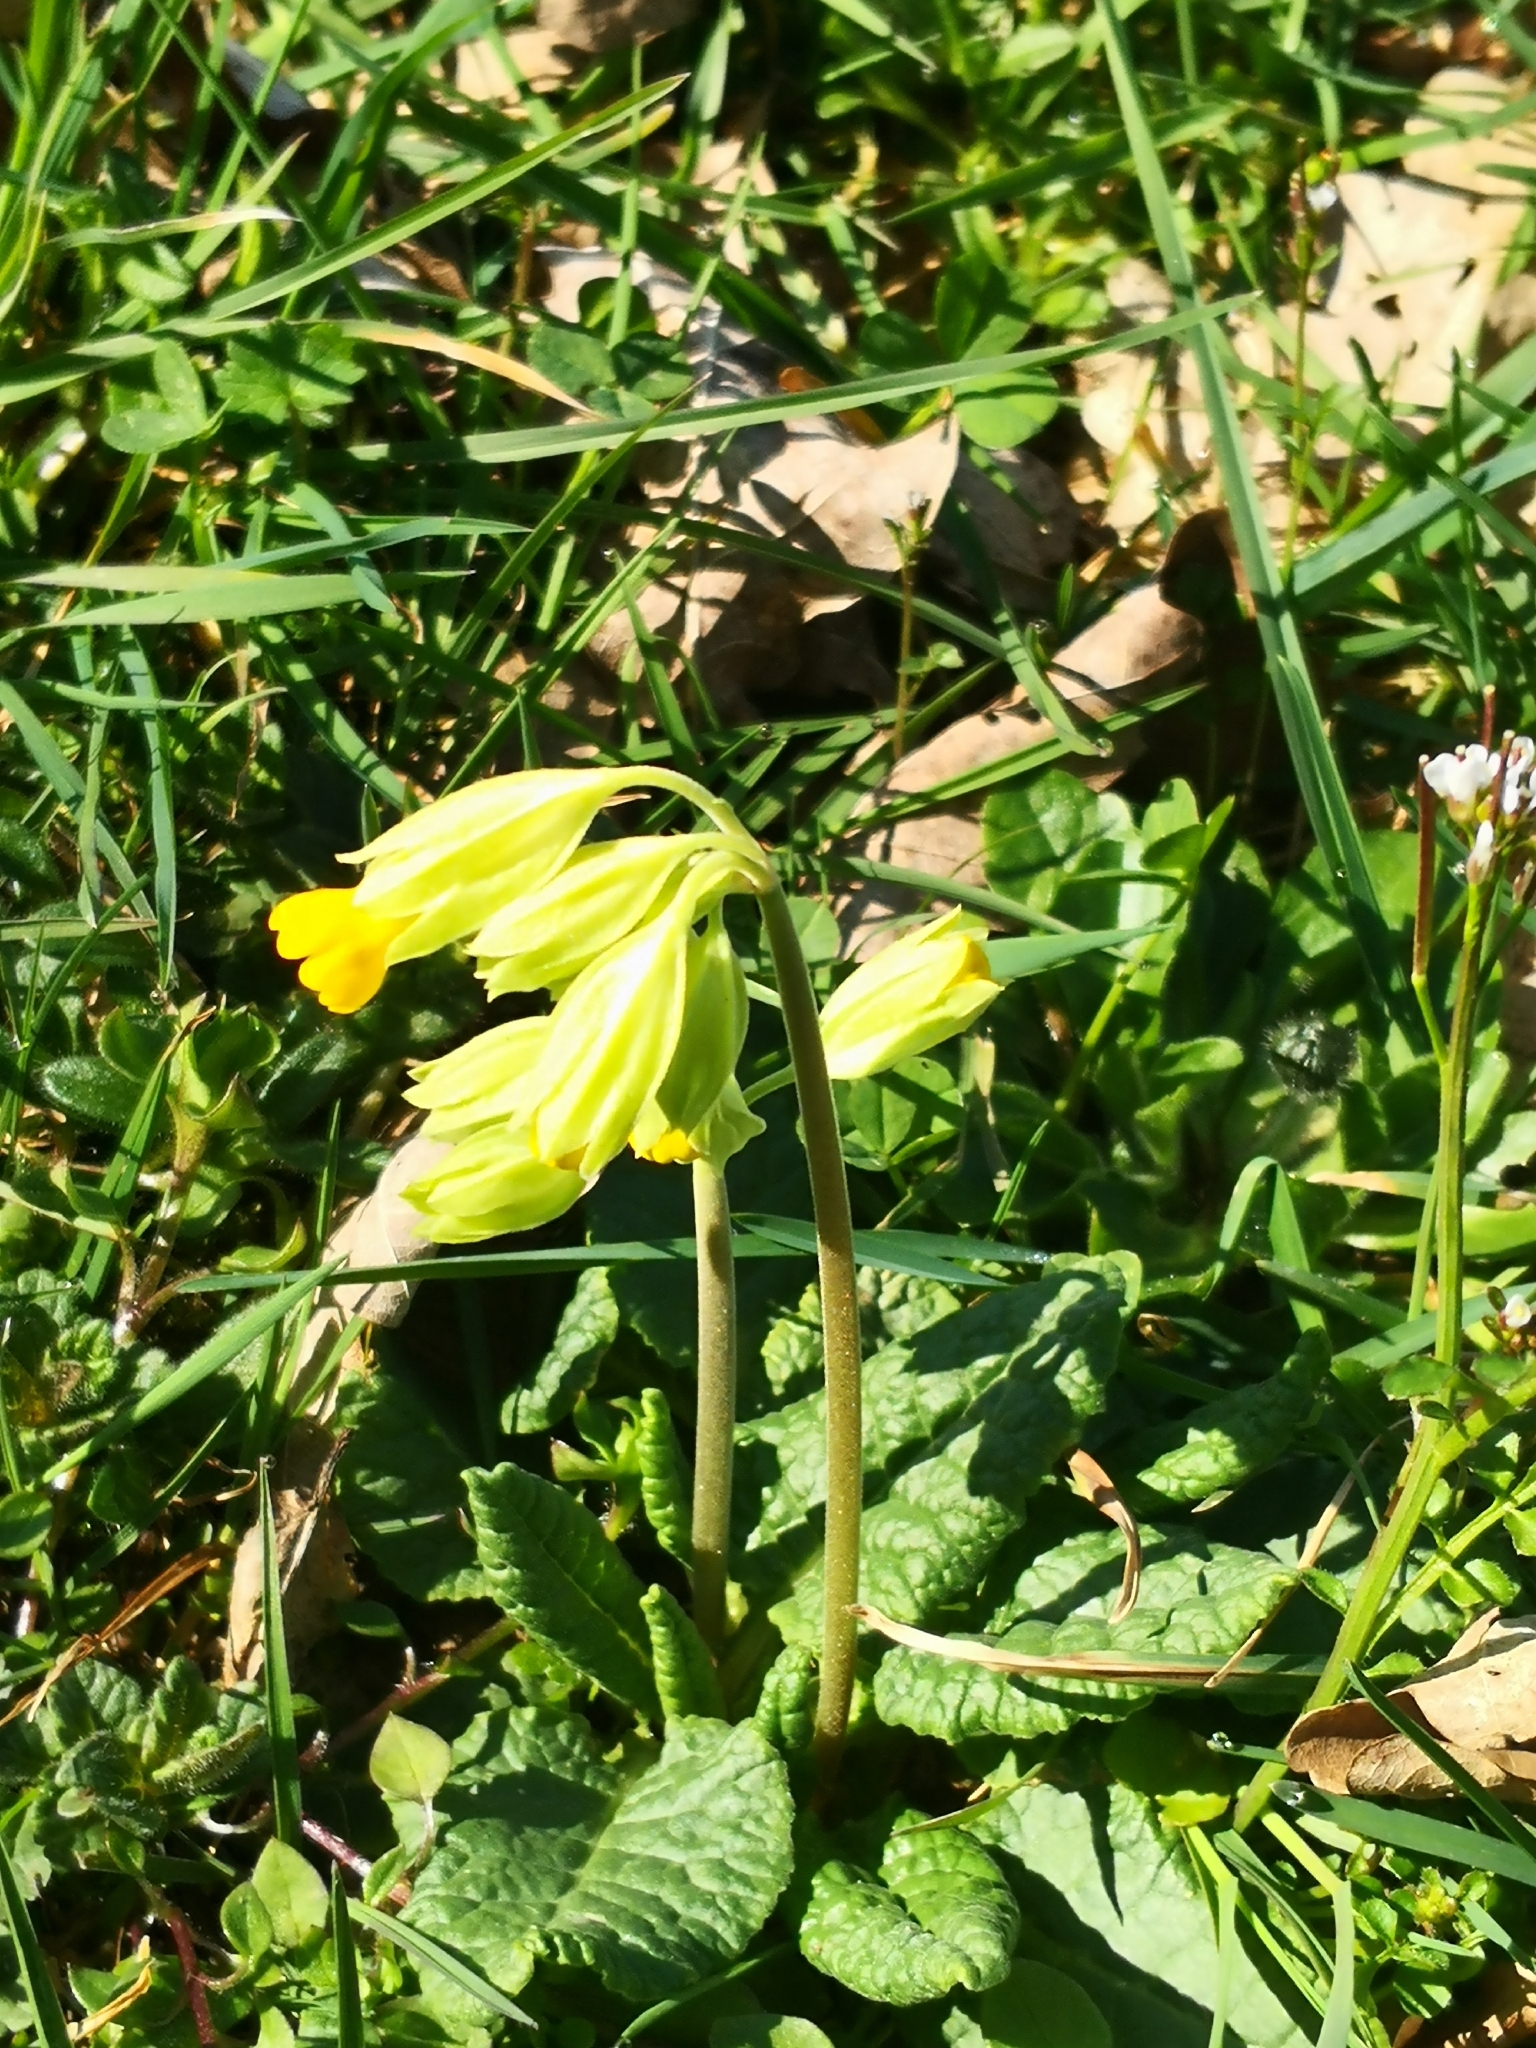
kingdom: Plantae
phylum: Tracheophyta
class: Magnoliopsida
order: Ericales
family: Primulaceae
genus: Primula
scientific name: Primula veris
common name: Cowslip
